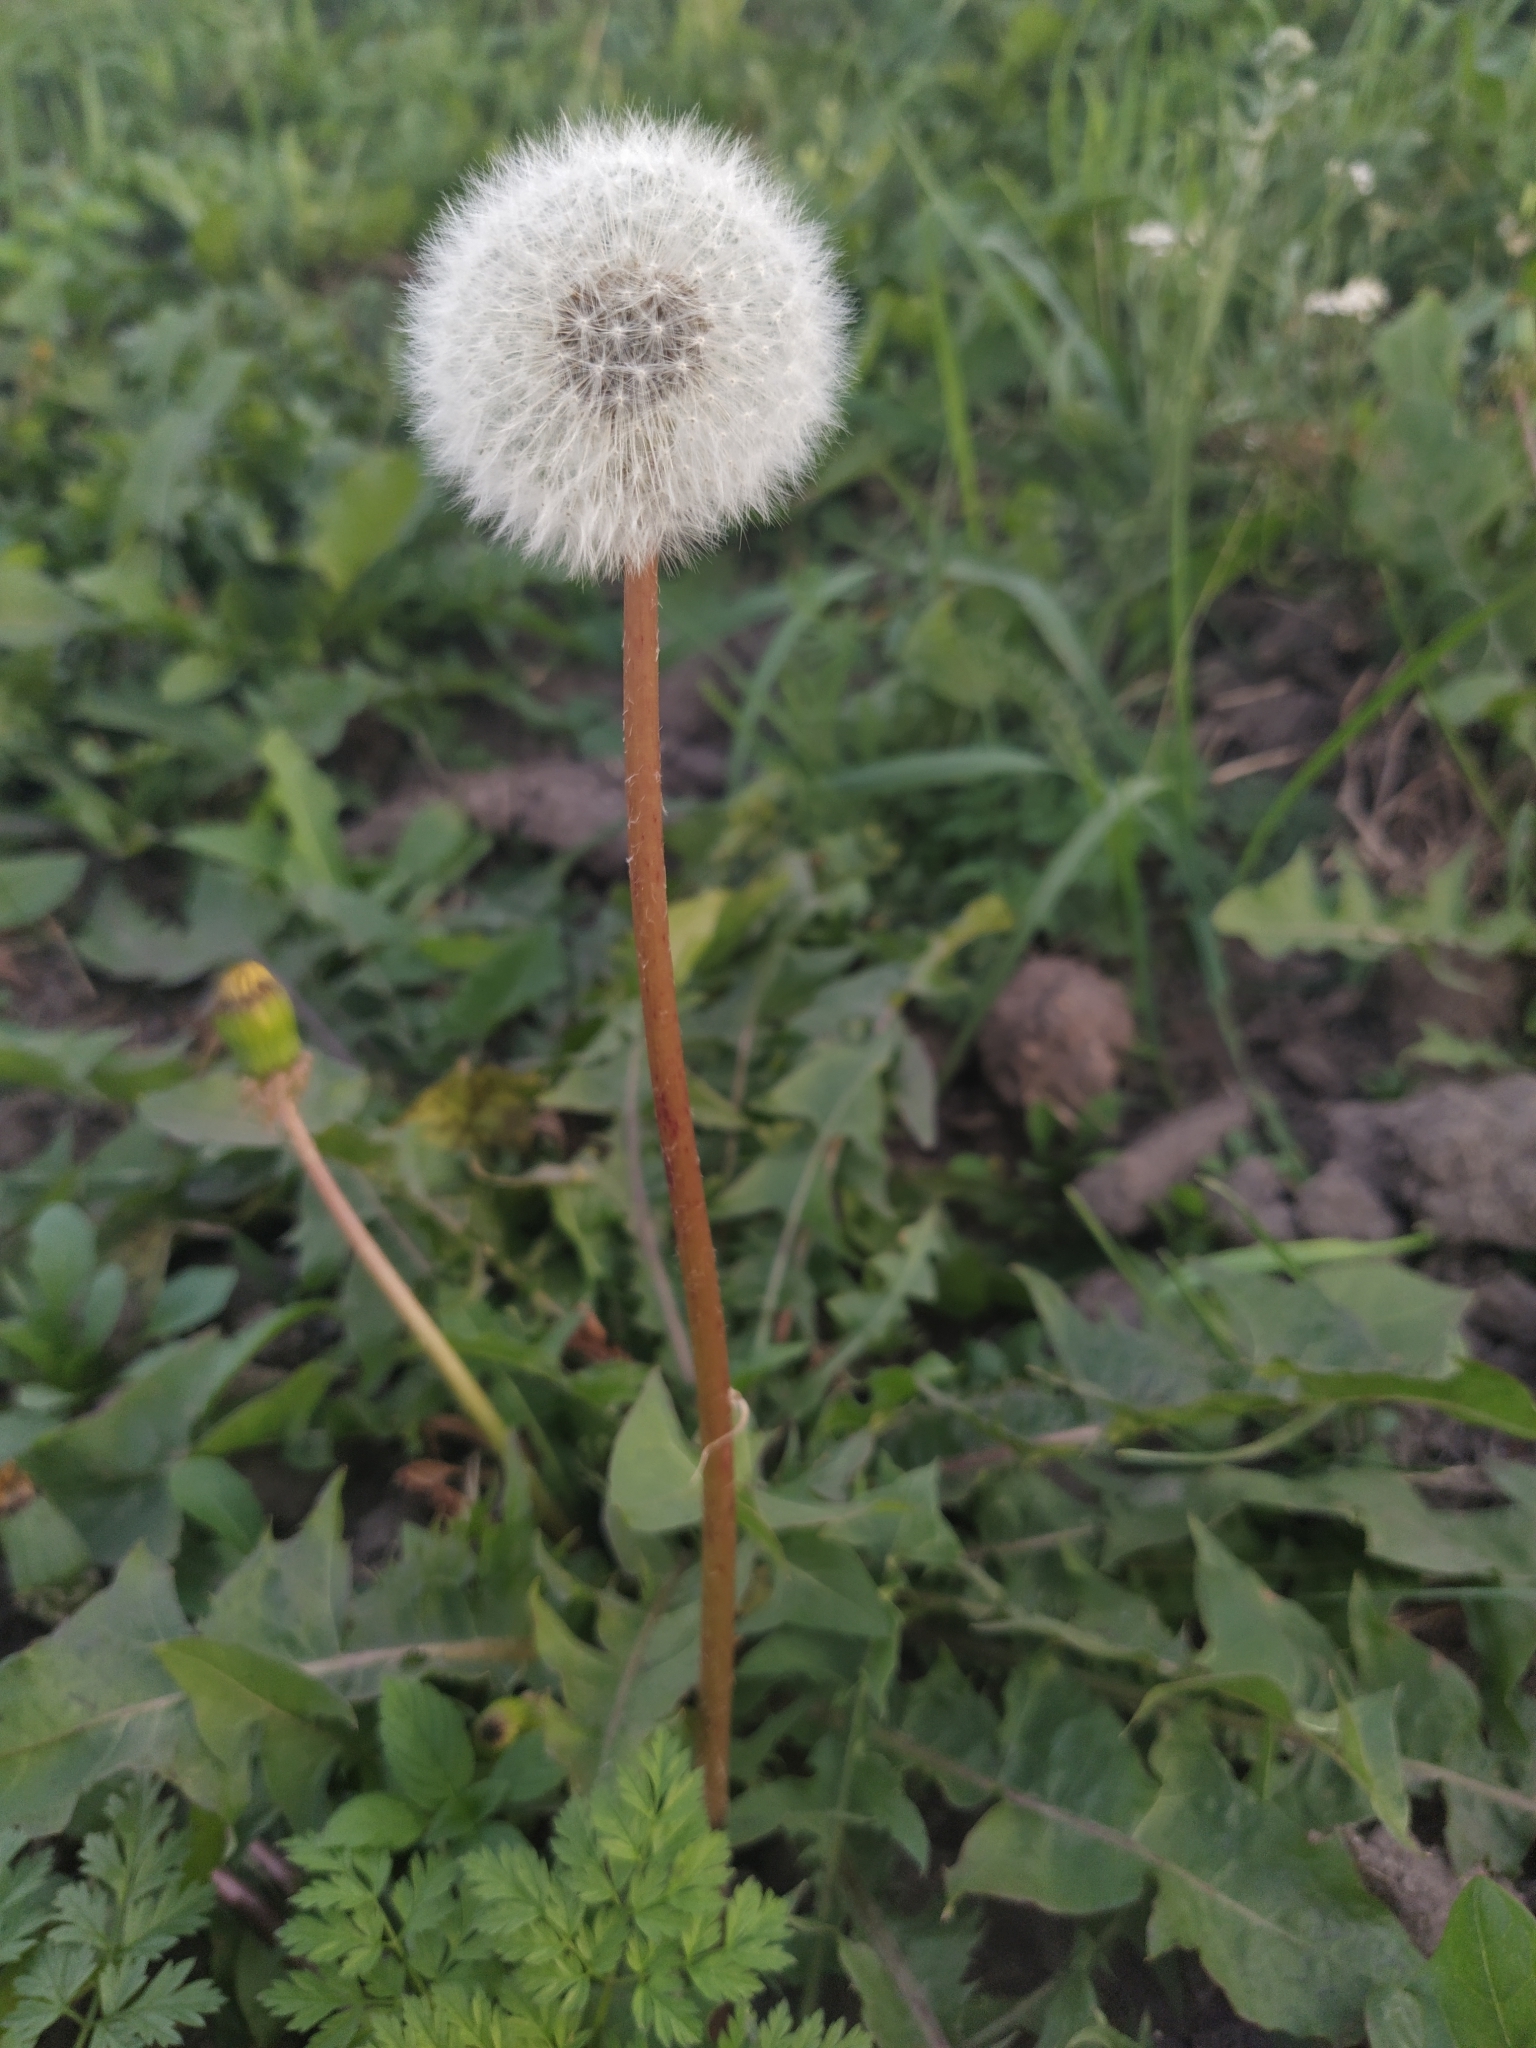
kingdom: Plantae
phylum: Tracheophyta
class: Magnoliopsida
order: Asterales
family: Asteraceae
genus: Taraxacum
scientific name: Taraxacum officinale
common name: Common dandelion
